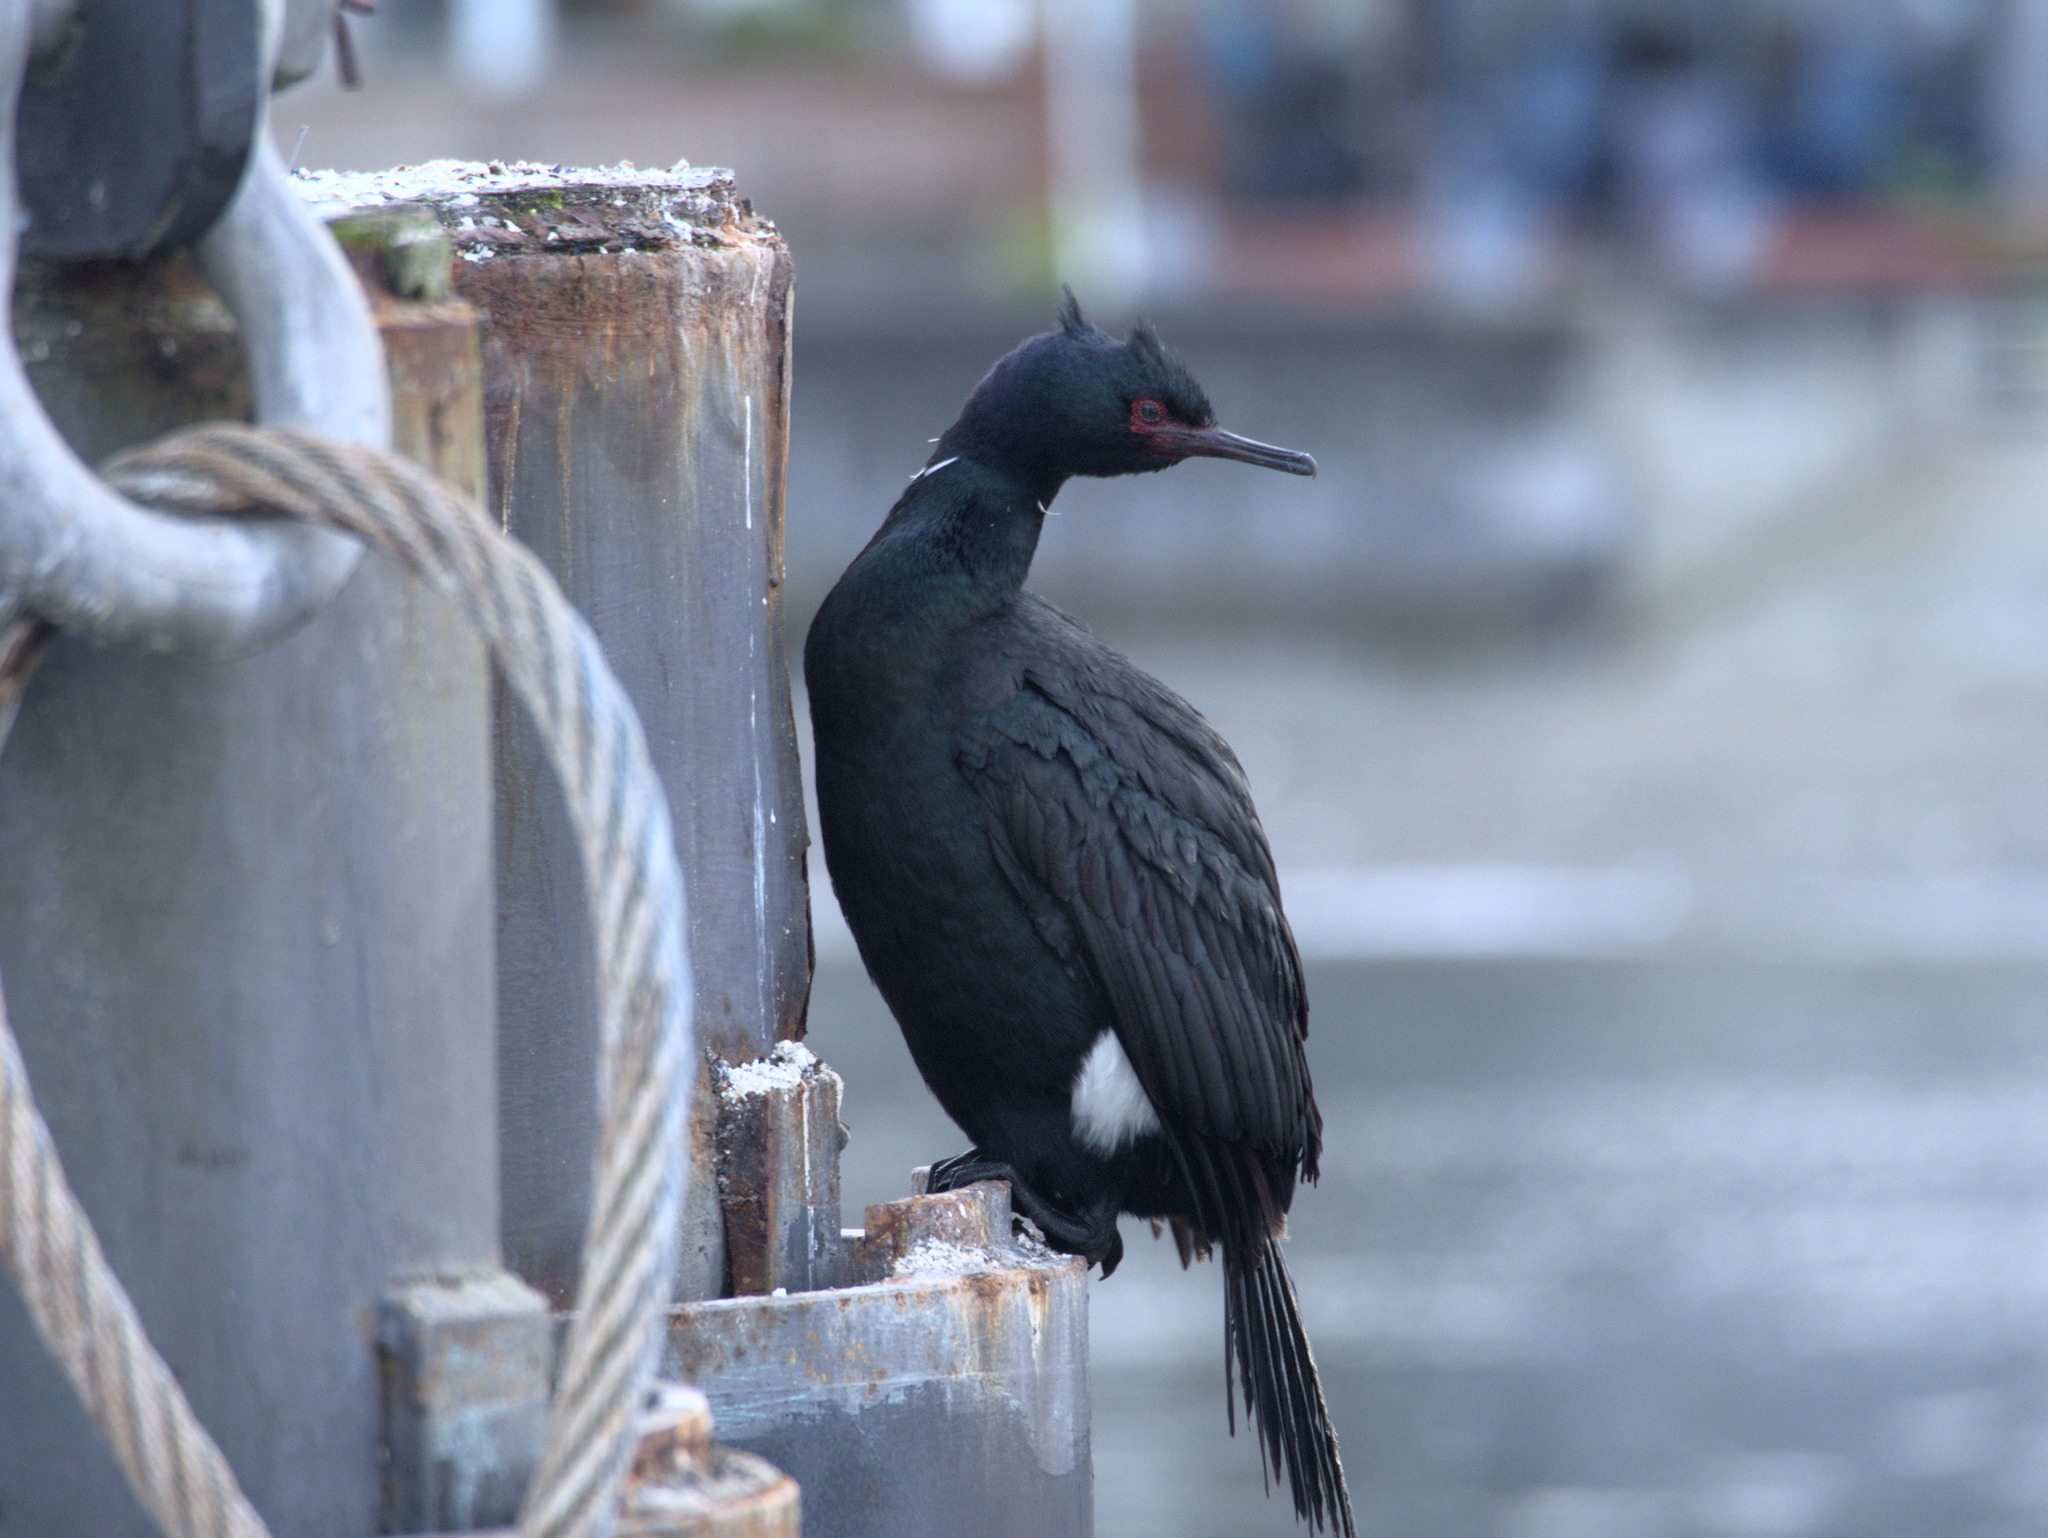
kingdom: Animalia
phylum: Chordata
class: Aves
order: Suliformes
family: Phalacrocoracidae
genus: Phalacrocorax
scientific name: Phalacrocorax pelagicus
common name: Pelagic cormorant
